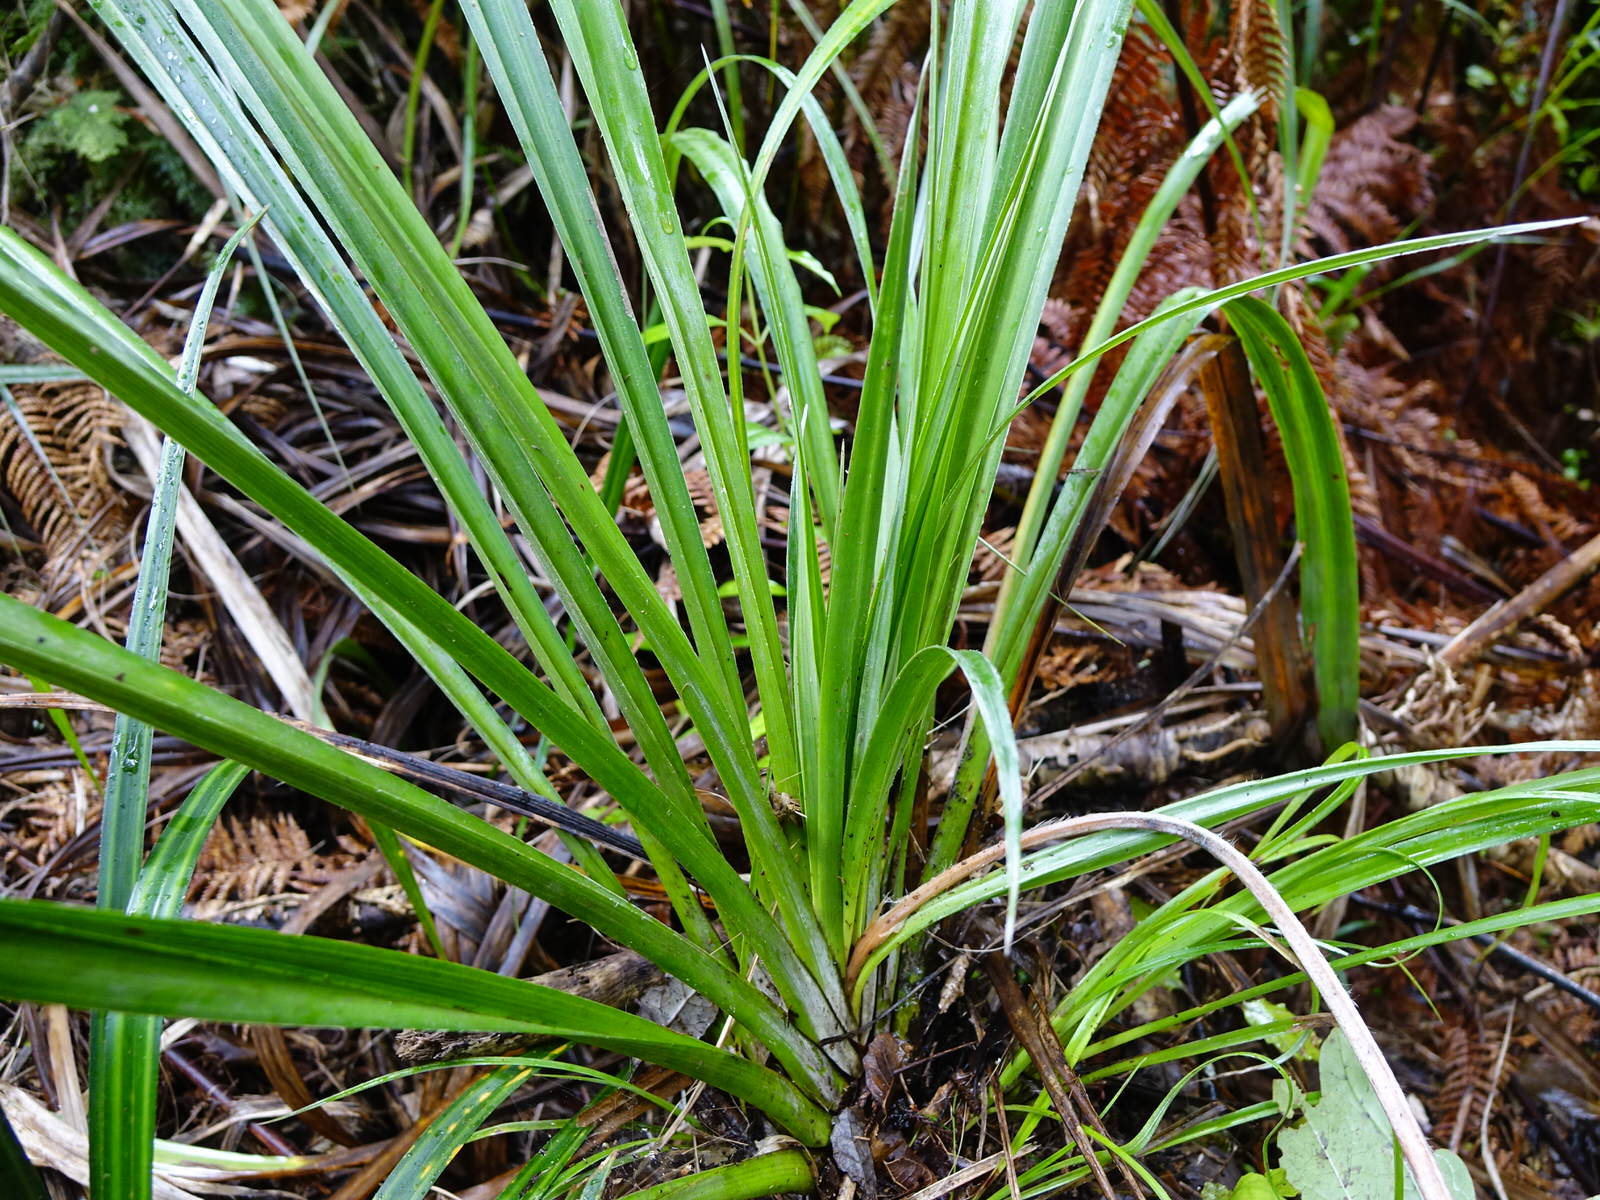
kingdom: Plantae
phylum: Tracheophyta
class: Liliopsida
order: Asparagales
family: Asteliaceae
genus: Astelia
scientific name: Astelia solandri
